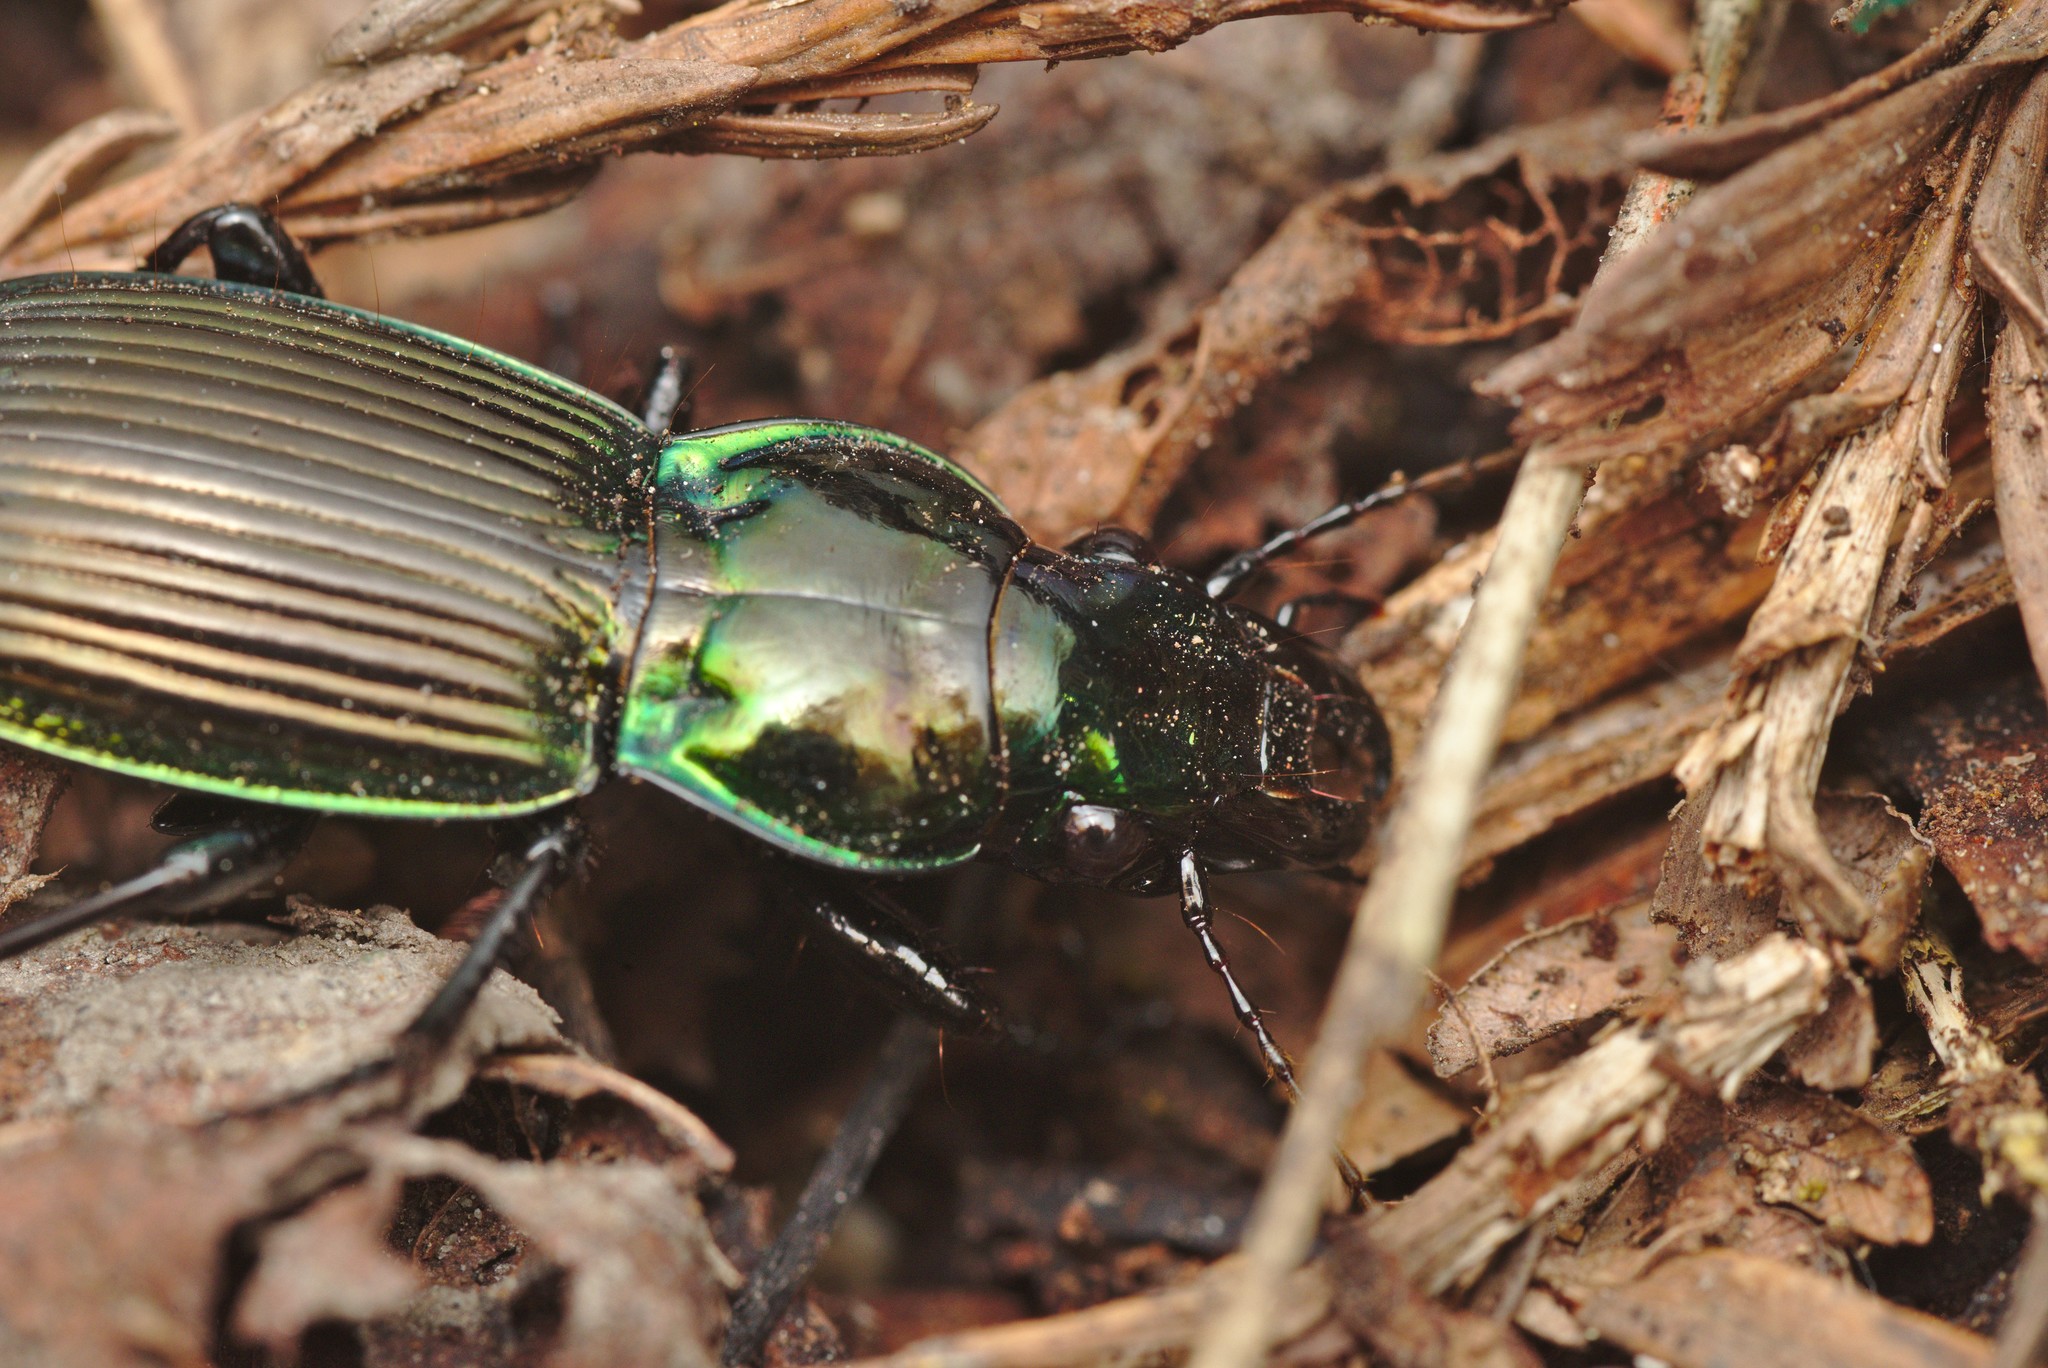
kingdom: Animalia
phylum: Arthropoda
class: Insecta
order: Coleoptera
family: Carabidae
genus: Megadromus
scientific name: Megadromus antarcticus
